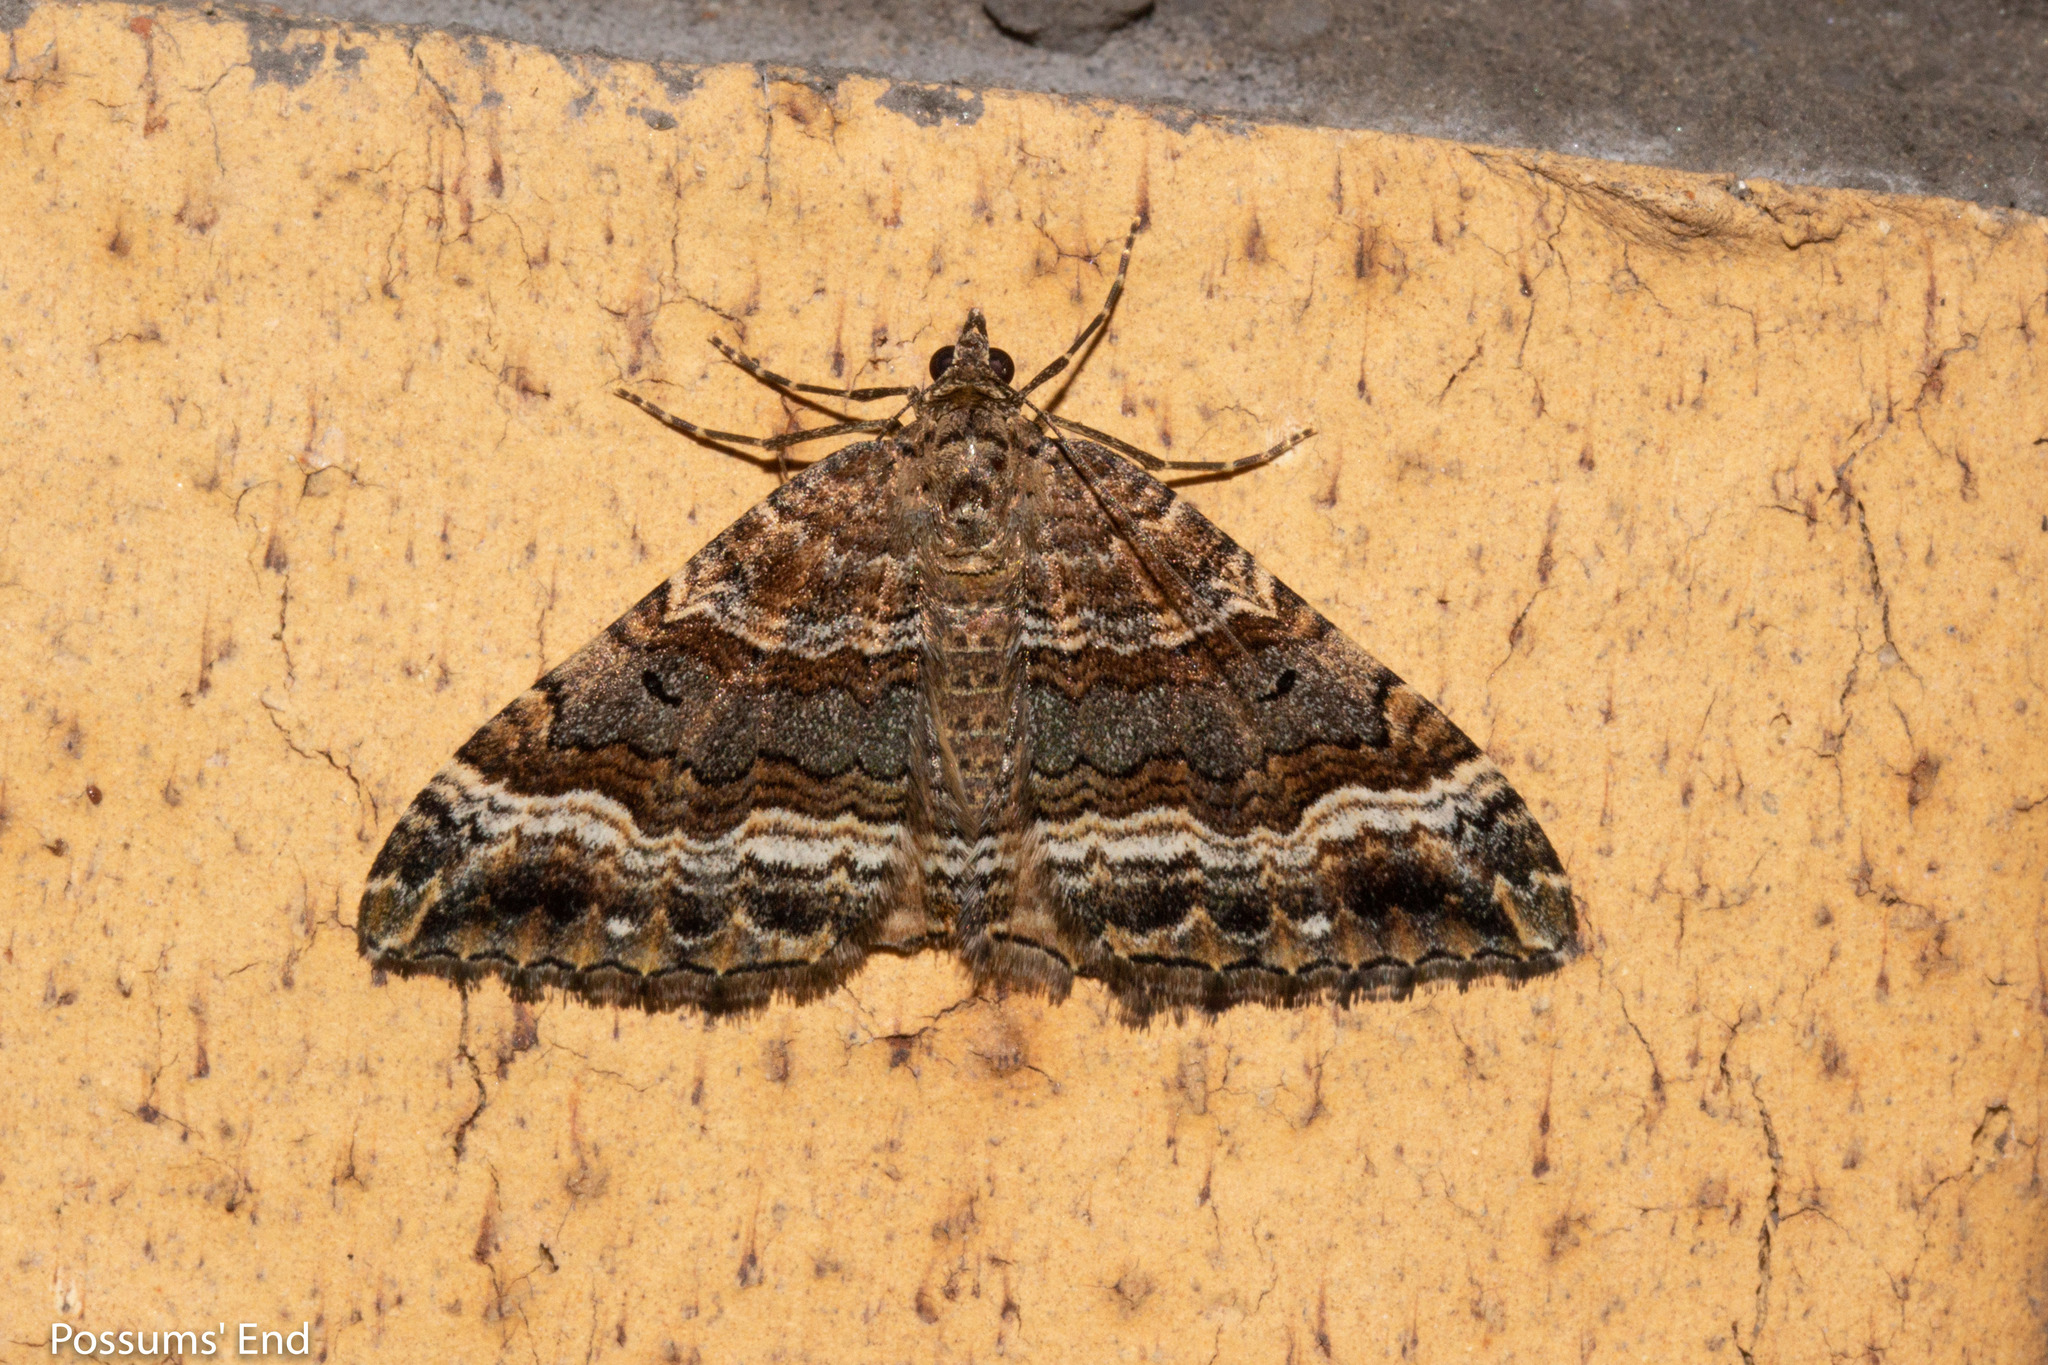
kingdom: Animalia
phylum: Arthropoda
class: Insecta
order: Lepidoptera
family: Geometridae
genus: Hydriomena
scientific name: Hydriomena deltoidata
